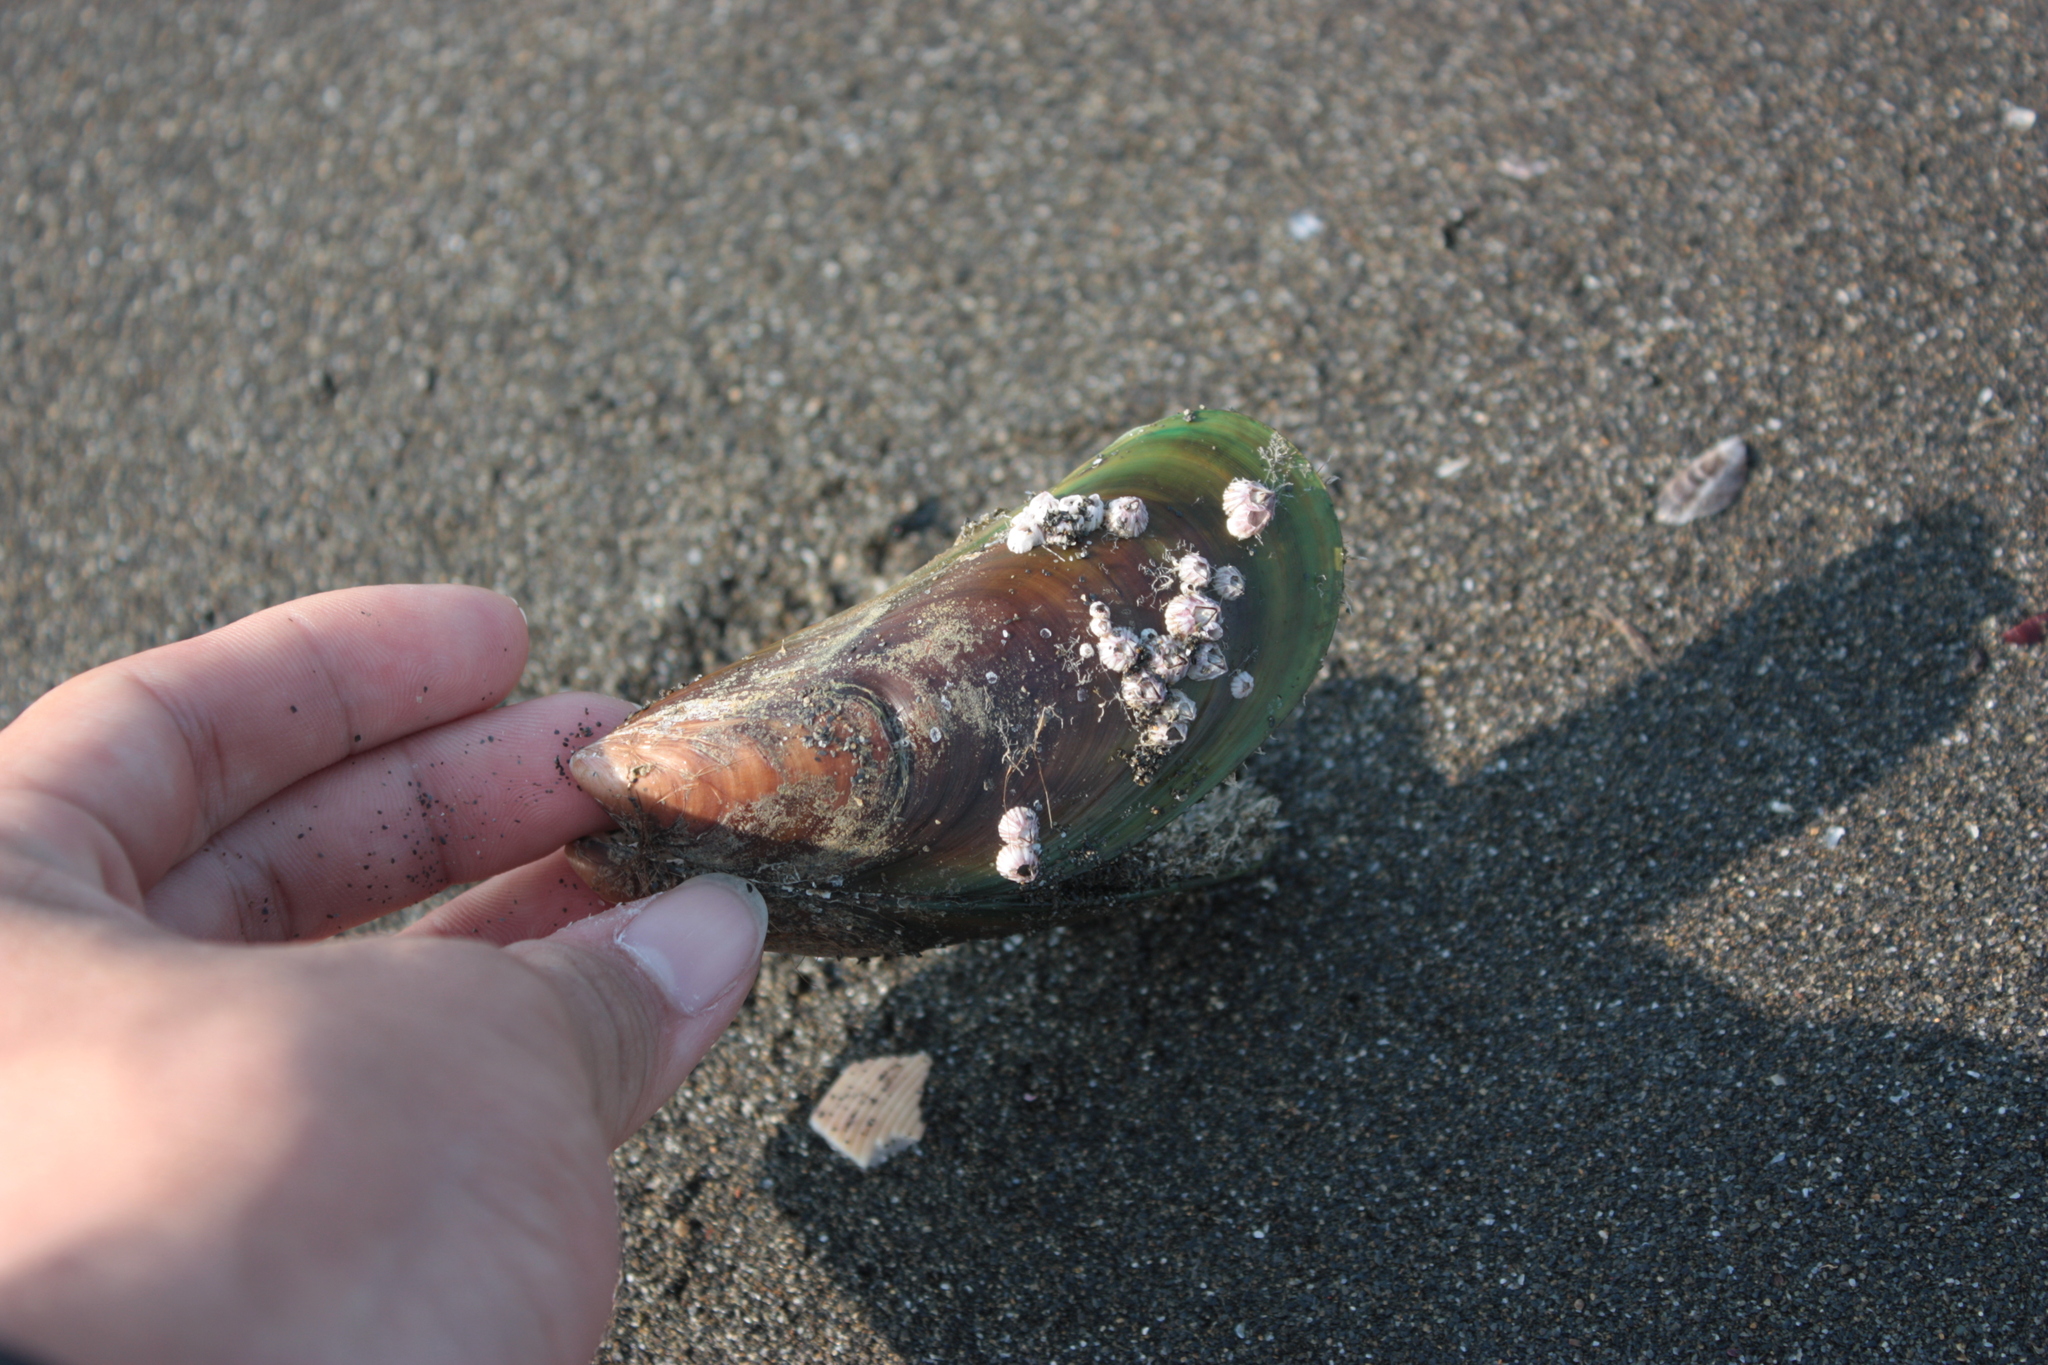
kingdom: Animalia
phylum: Mollusca
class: Bivalvia
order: Mytilida
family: Mytilidae
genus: Perna
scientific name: Perna viridis
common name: Green mussel
